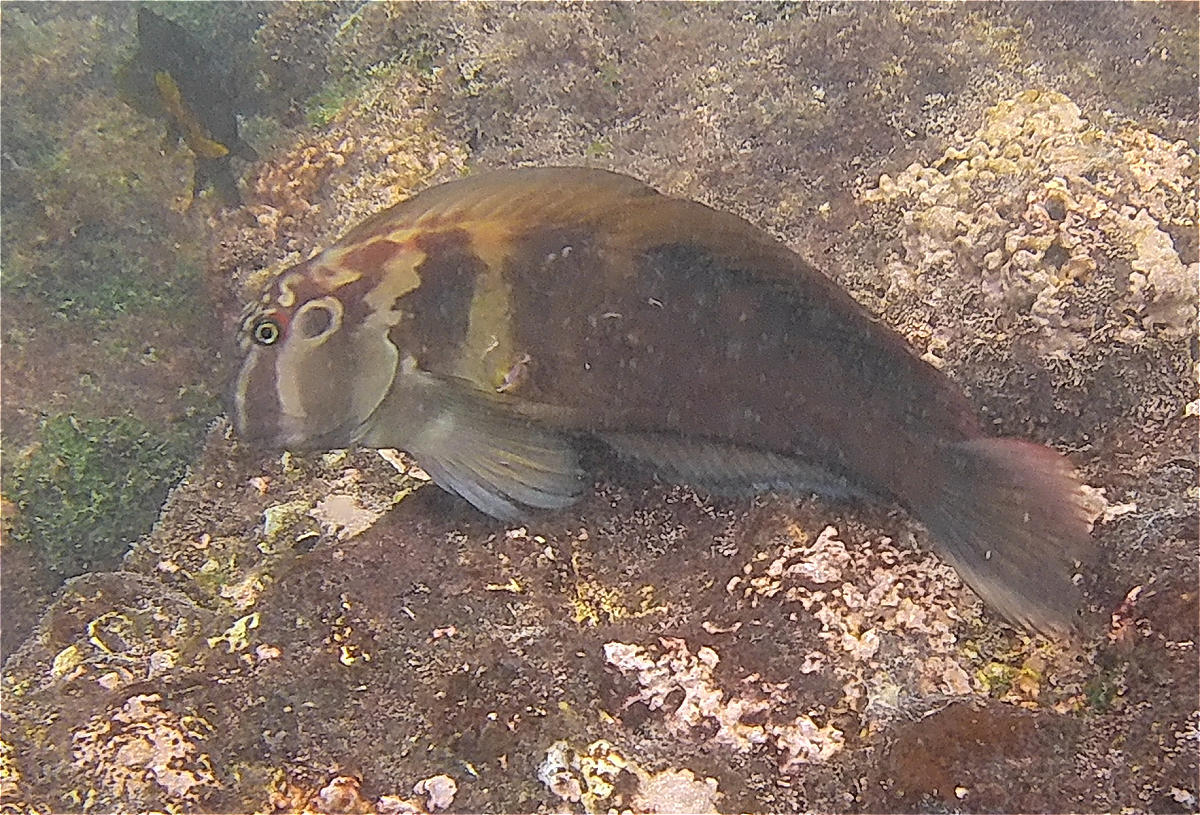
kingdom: Animalia
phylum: Chordata
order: Perciformes
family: Blenniidae
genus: Ophioblennius
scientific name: Ophioblennius steindachneri
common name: Panamic fanged blenny
